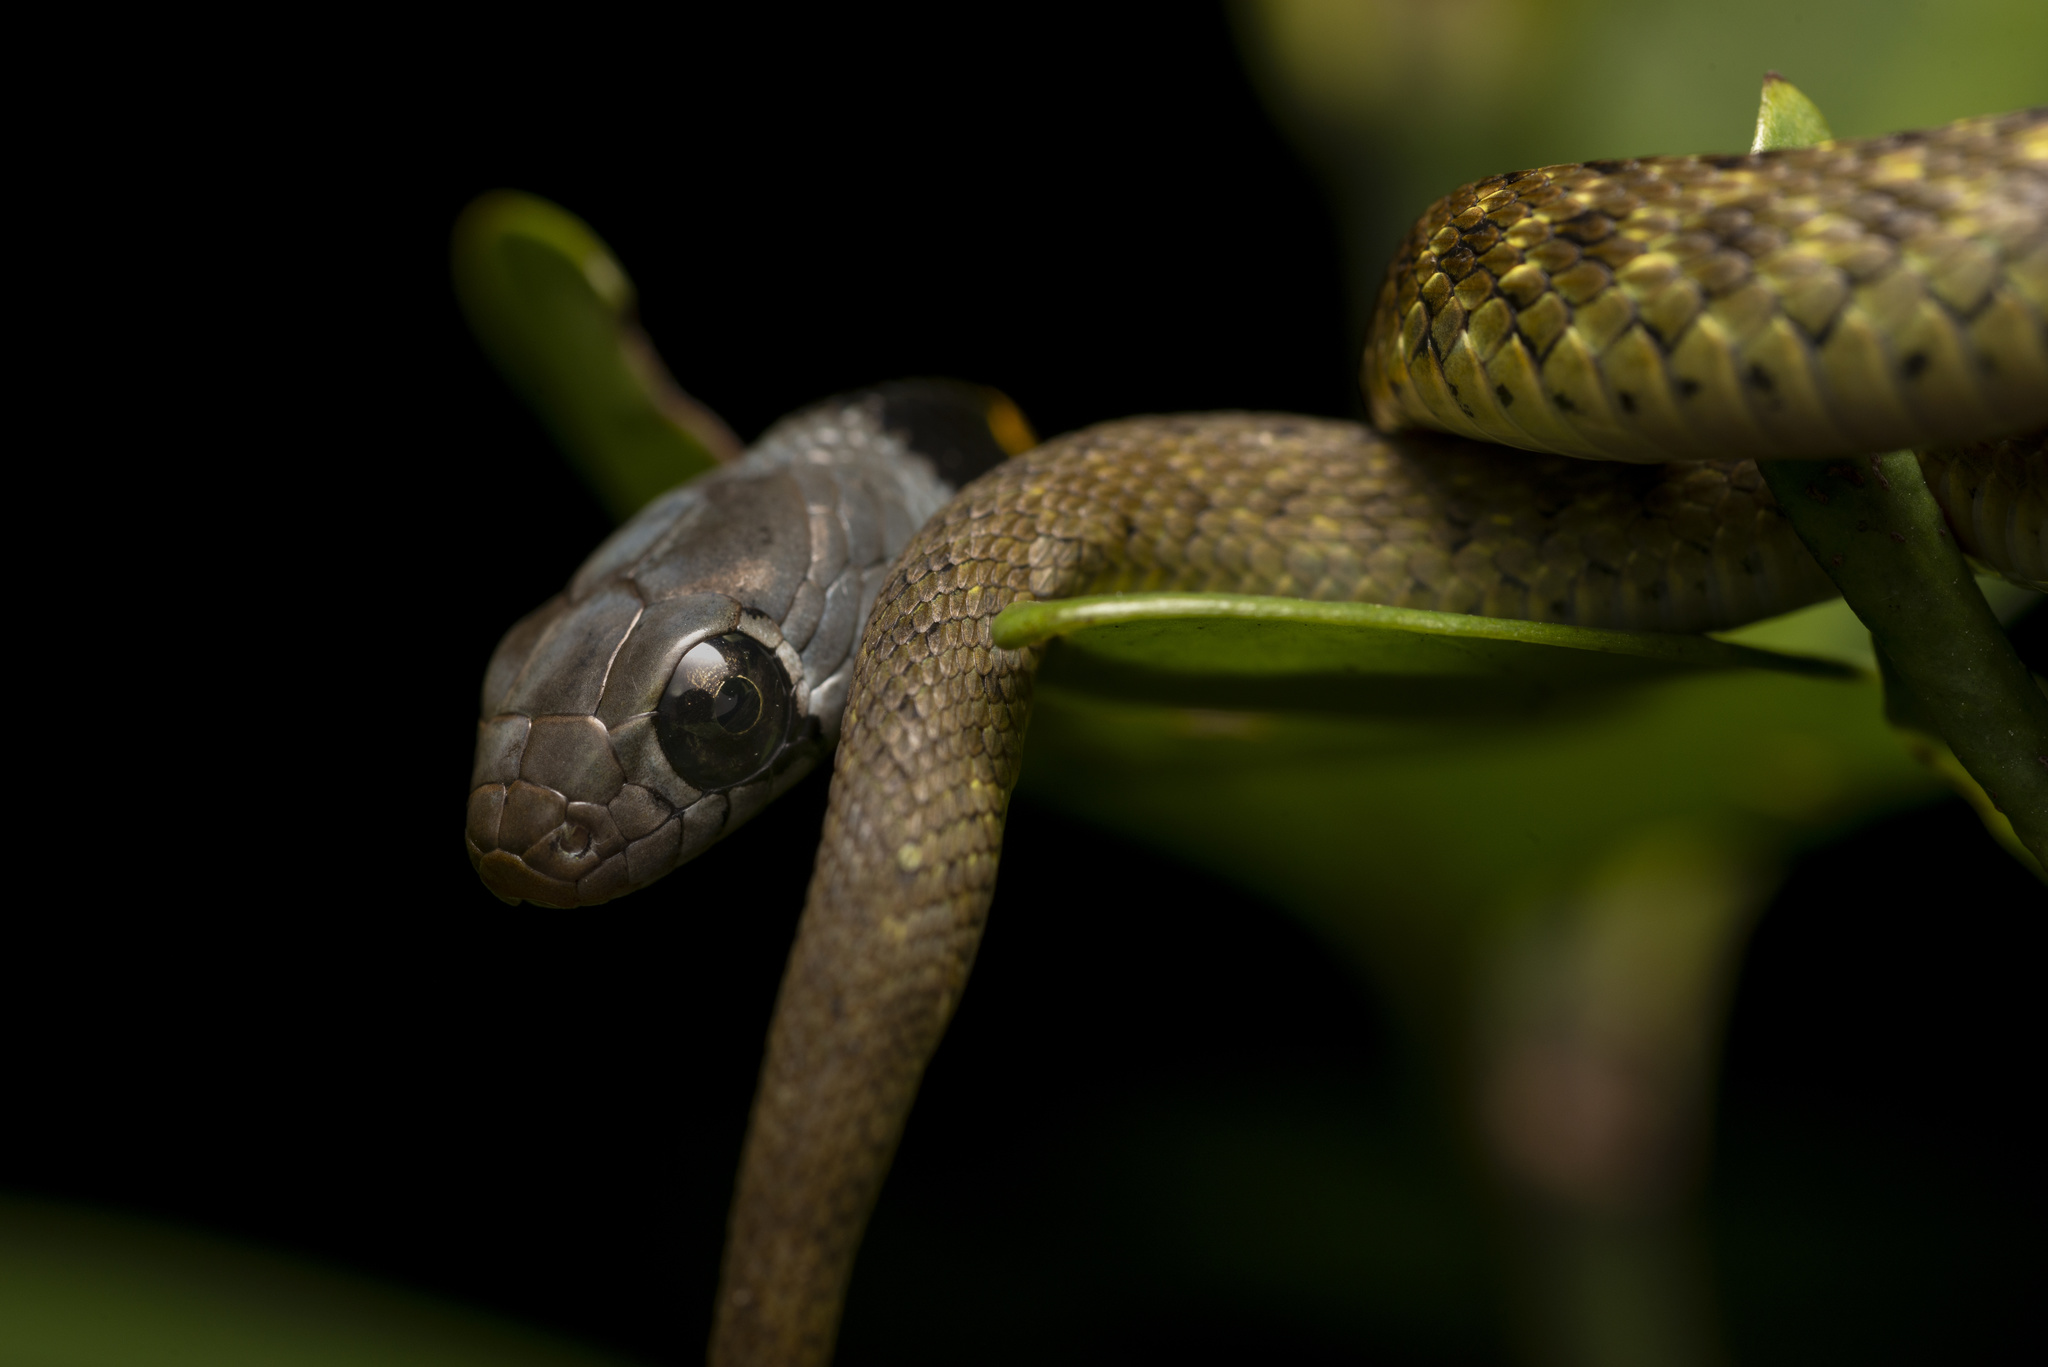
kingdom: Animalia
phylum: Chordata
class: Squamata
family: Colubridae
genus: Rhabdophis
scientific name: Rhabdophis helleri
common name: Heller’s red-necked keelback
